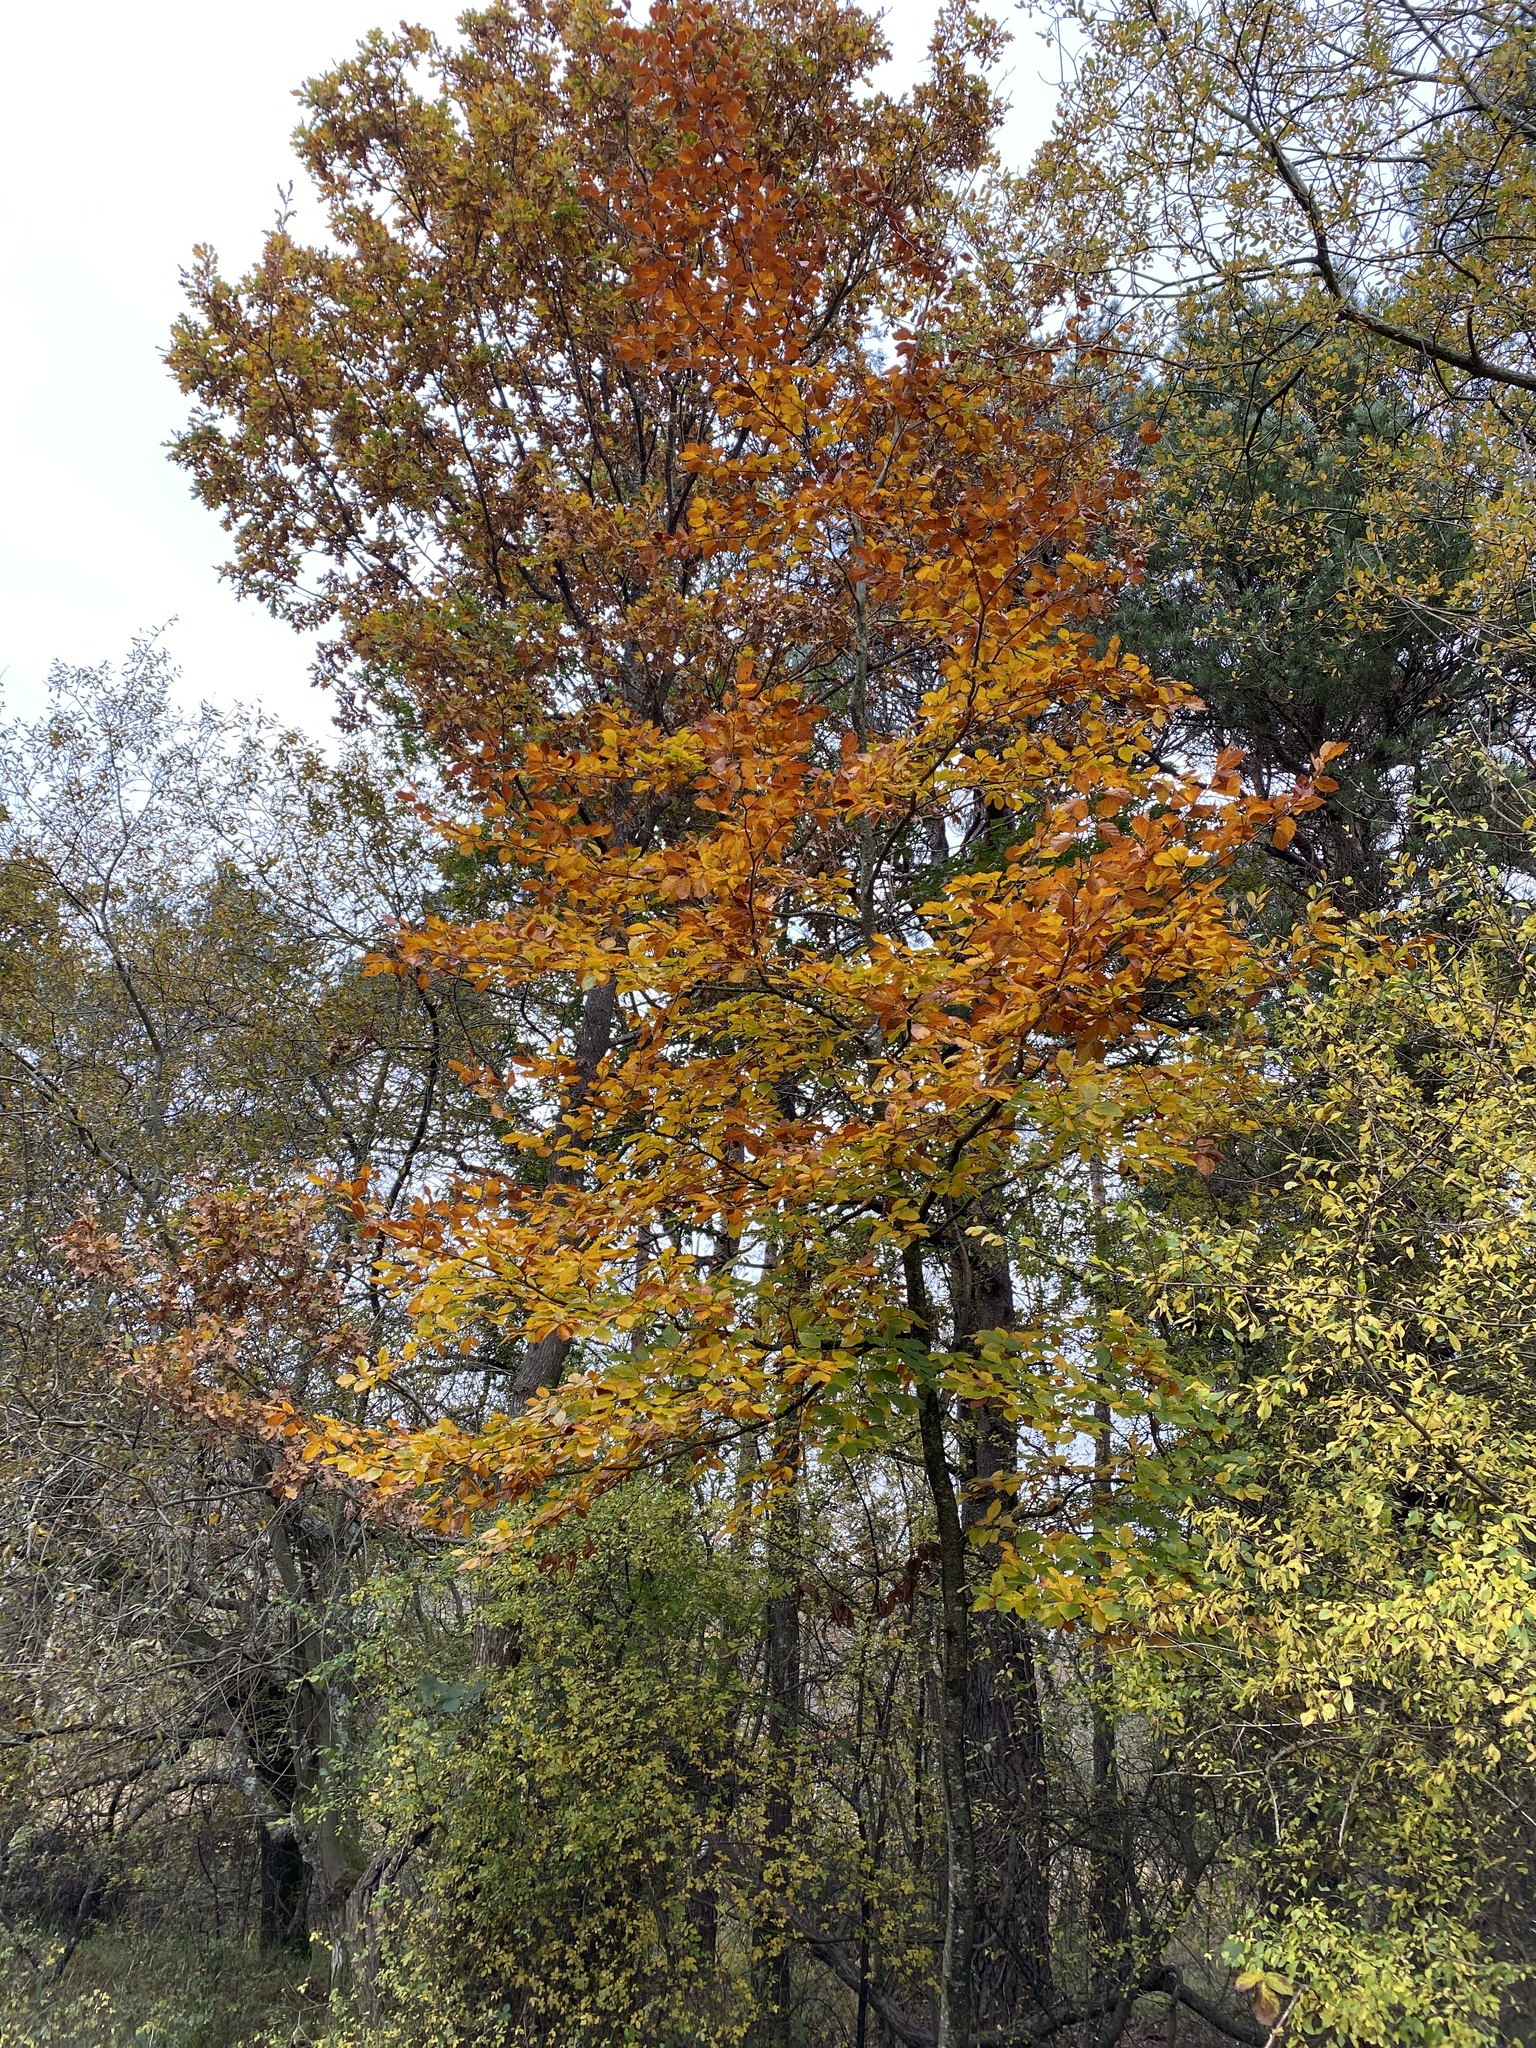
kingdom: Plantae
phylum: Tracheophyta
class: Magnoliopsida
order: Fagales
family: Fagaceae
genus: Fagus
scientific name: Fagus sylvatica
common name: Beech
